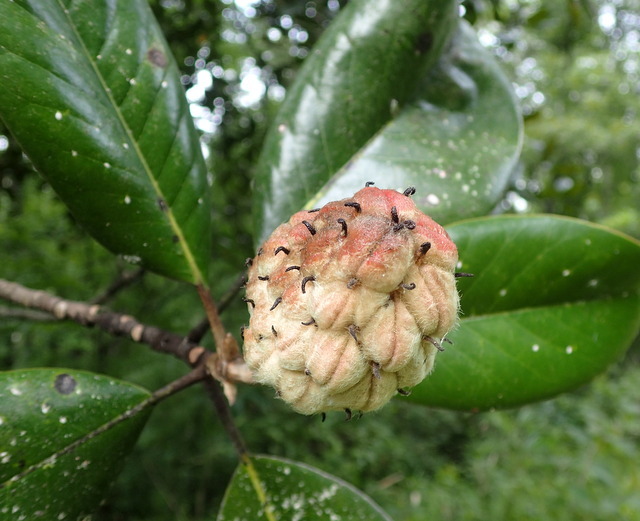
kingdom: Plantae
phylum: Tracheophyta
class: Magnoliopsida
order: Magnoliales
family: Magnoliaceae
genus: Magnolia
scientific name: Magnolia grandiflora
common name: Southern magnolia
